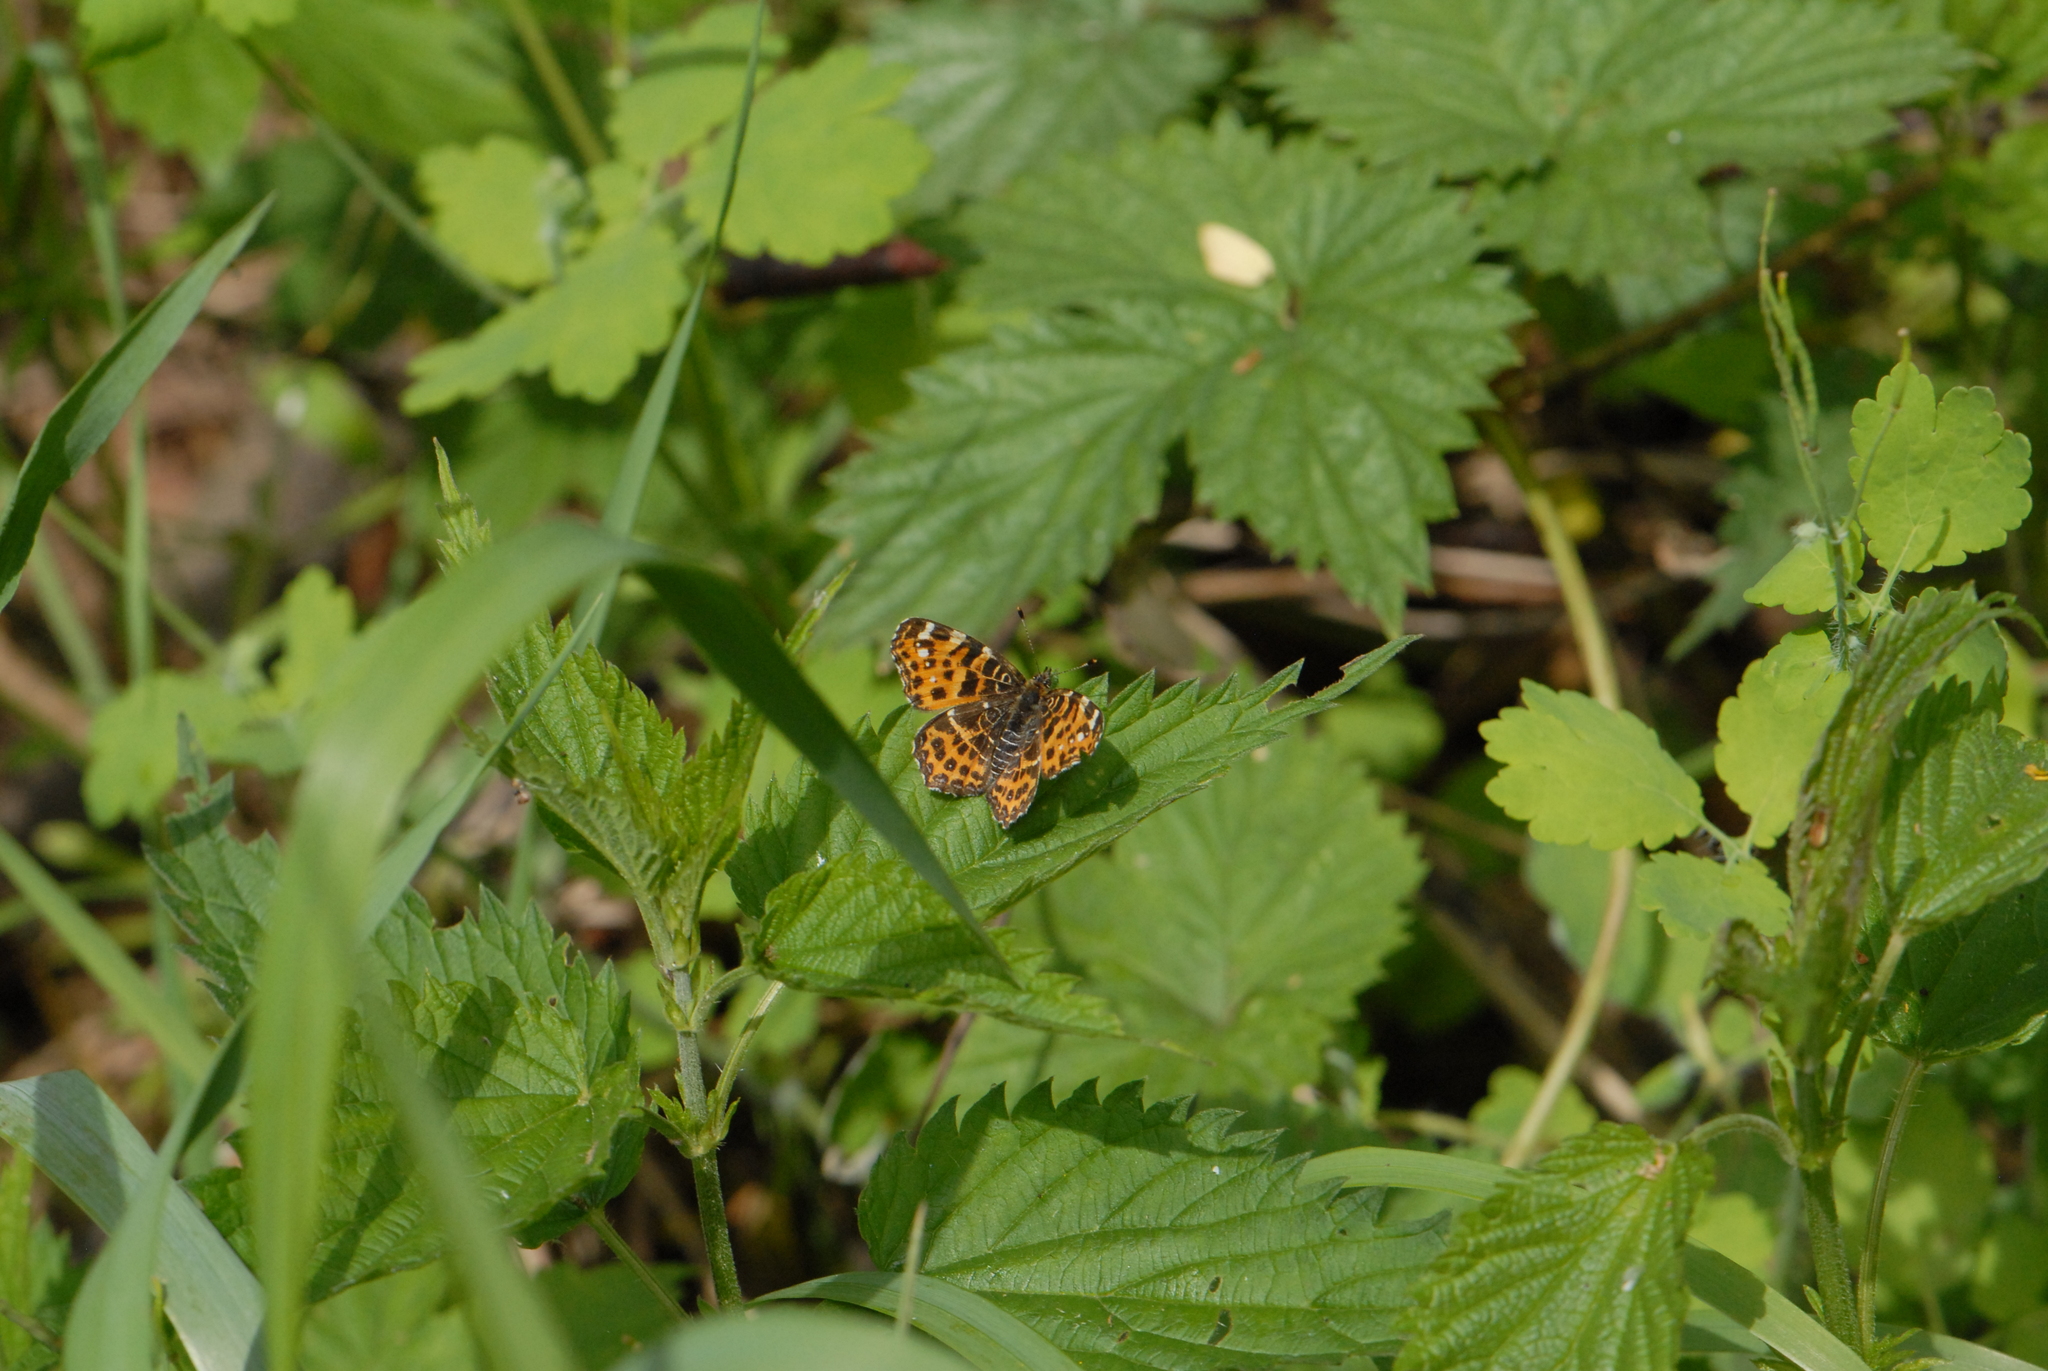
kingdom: Animalia
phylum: Arthropoda
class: Insecta
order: Lepidoptera
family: Nymphalidae
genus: Araschnia
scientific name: Araschnia levana
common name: Map butterfly
